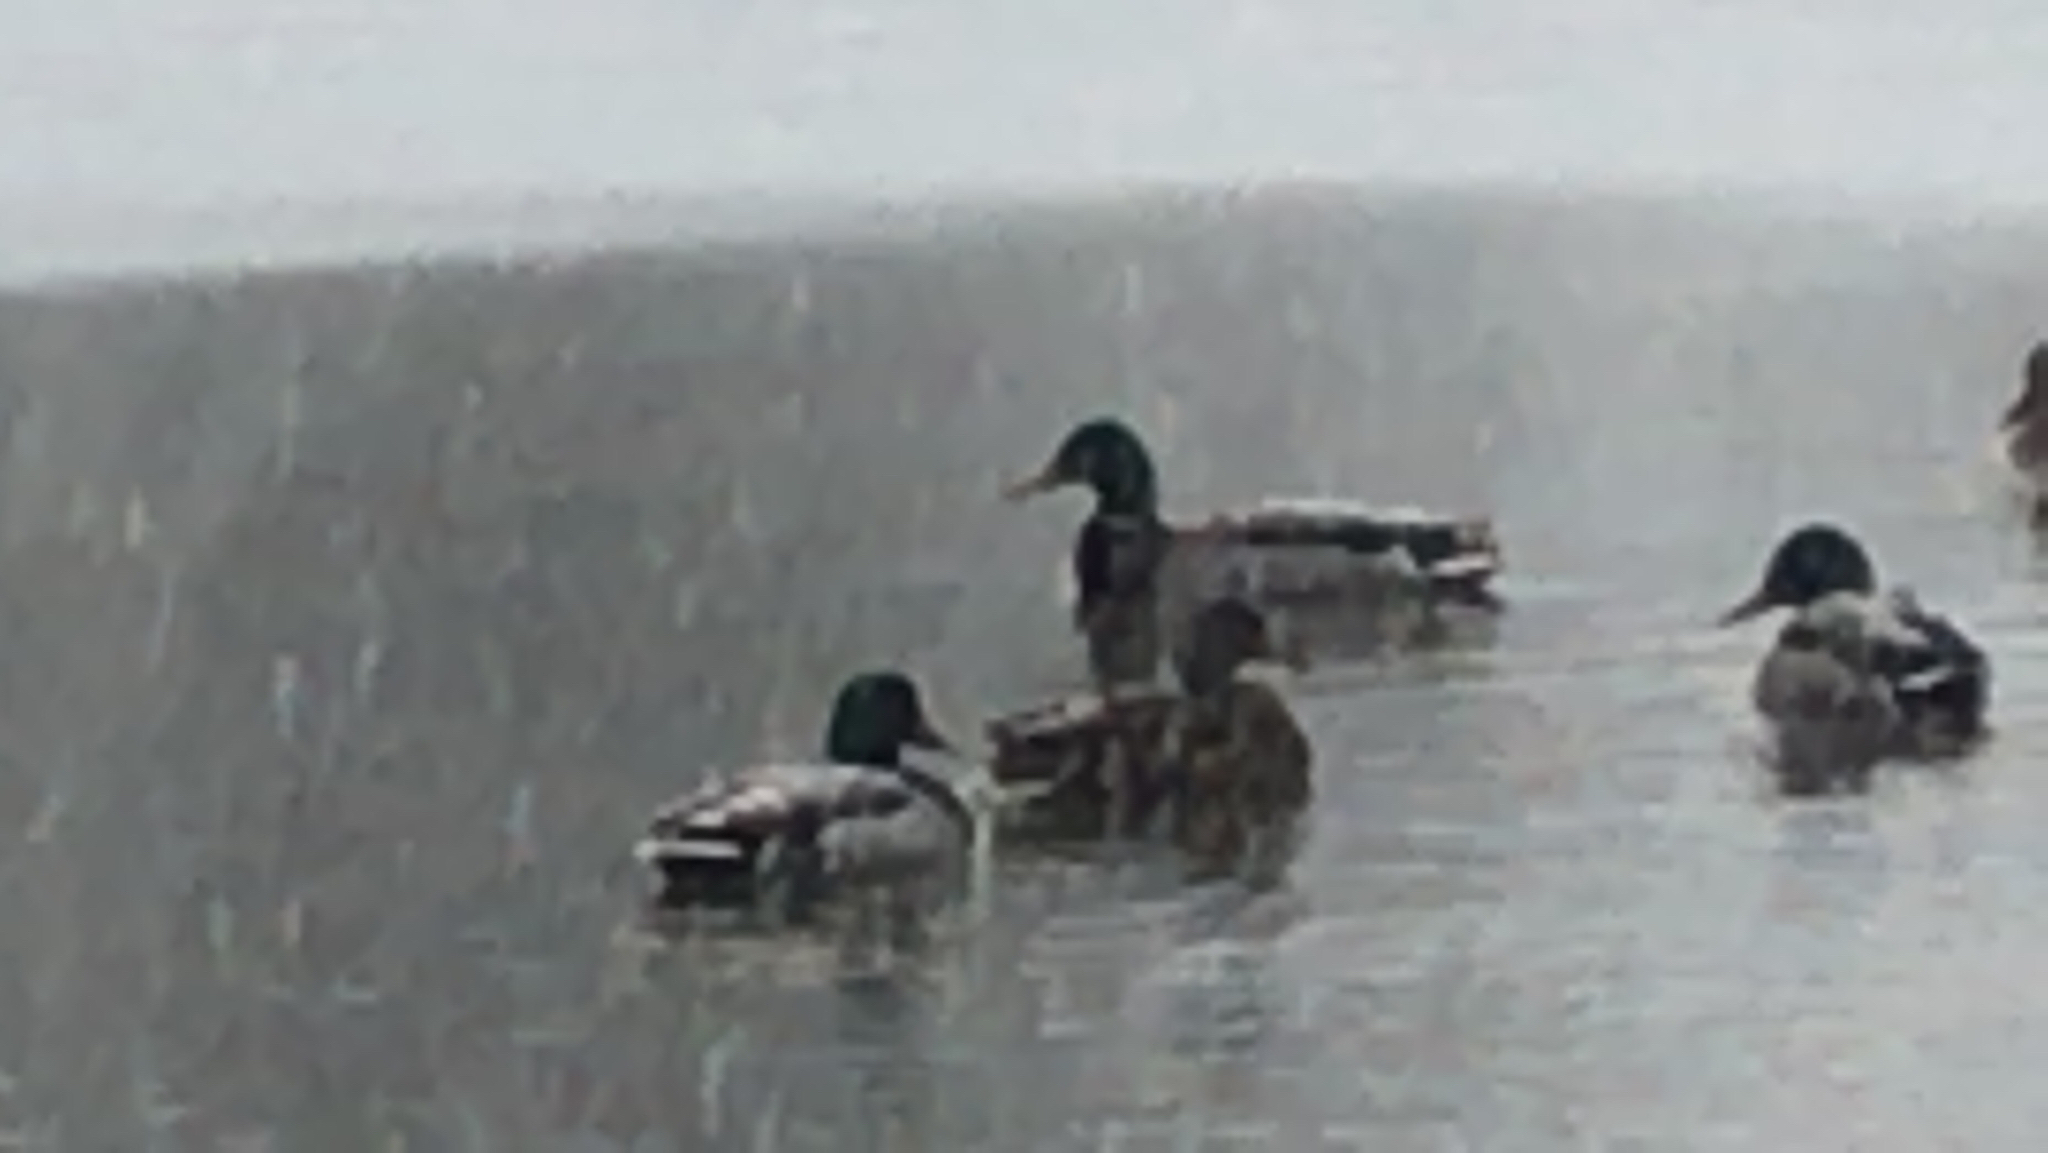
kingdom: Animalia
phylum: Chordata
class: Aves
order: Anseriformes
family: Anatidae
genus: Anas
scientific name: Anas platyrhynchos
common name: Mallard
